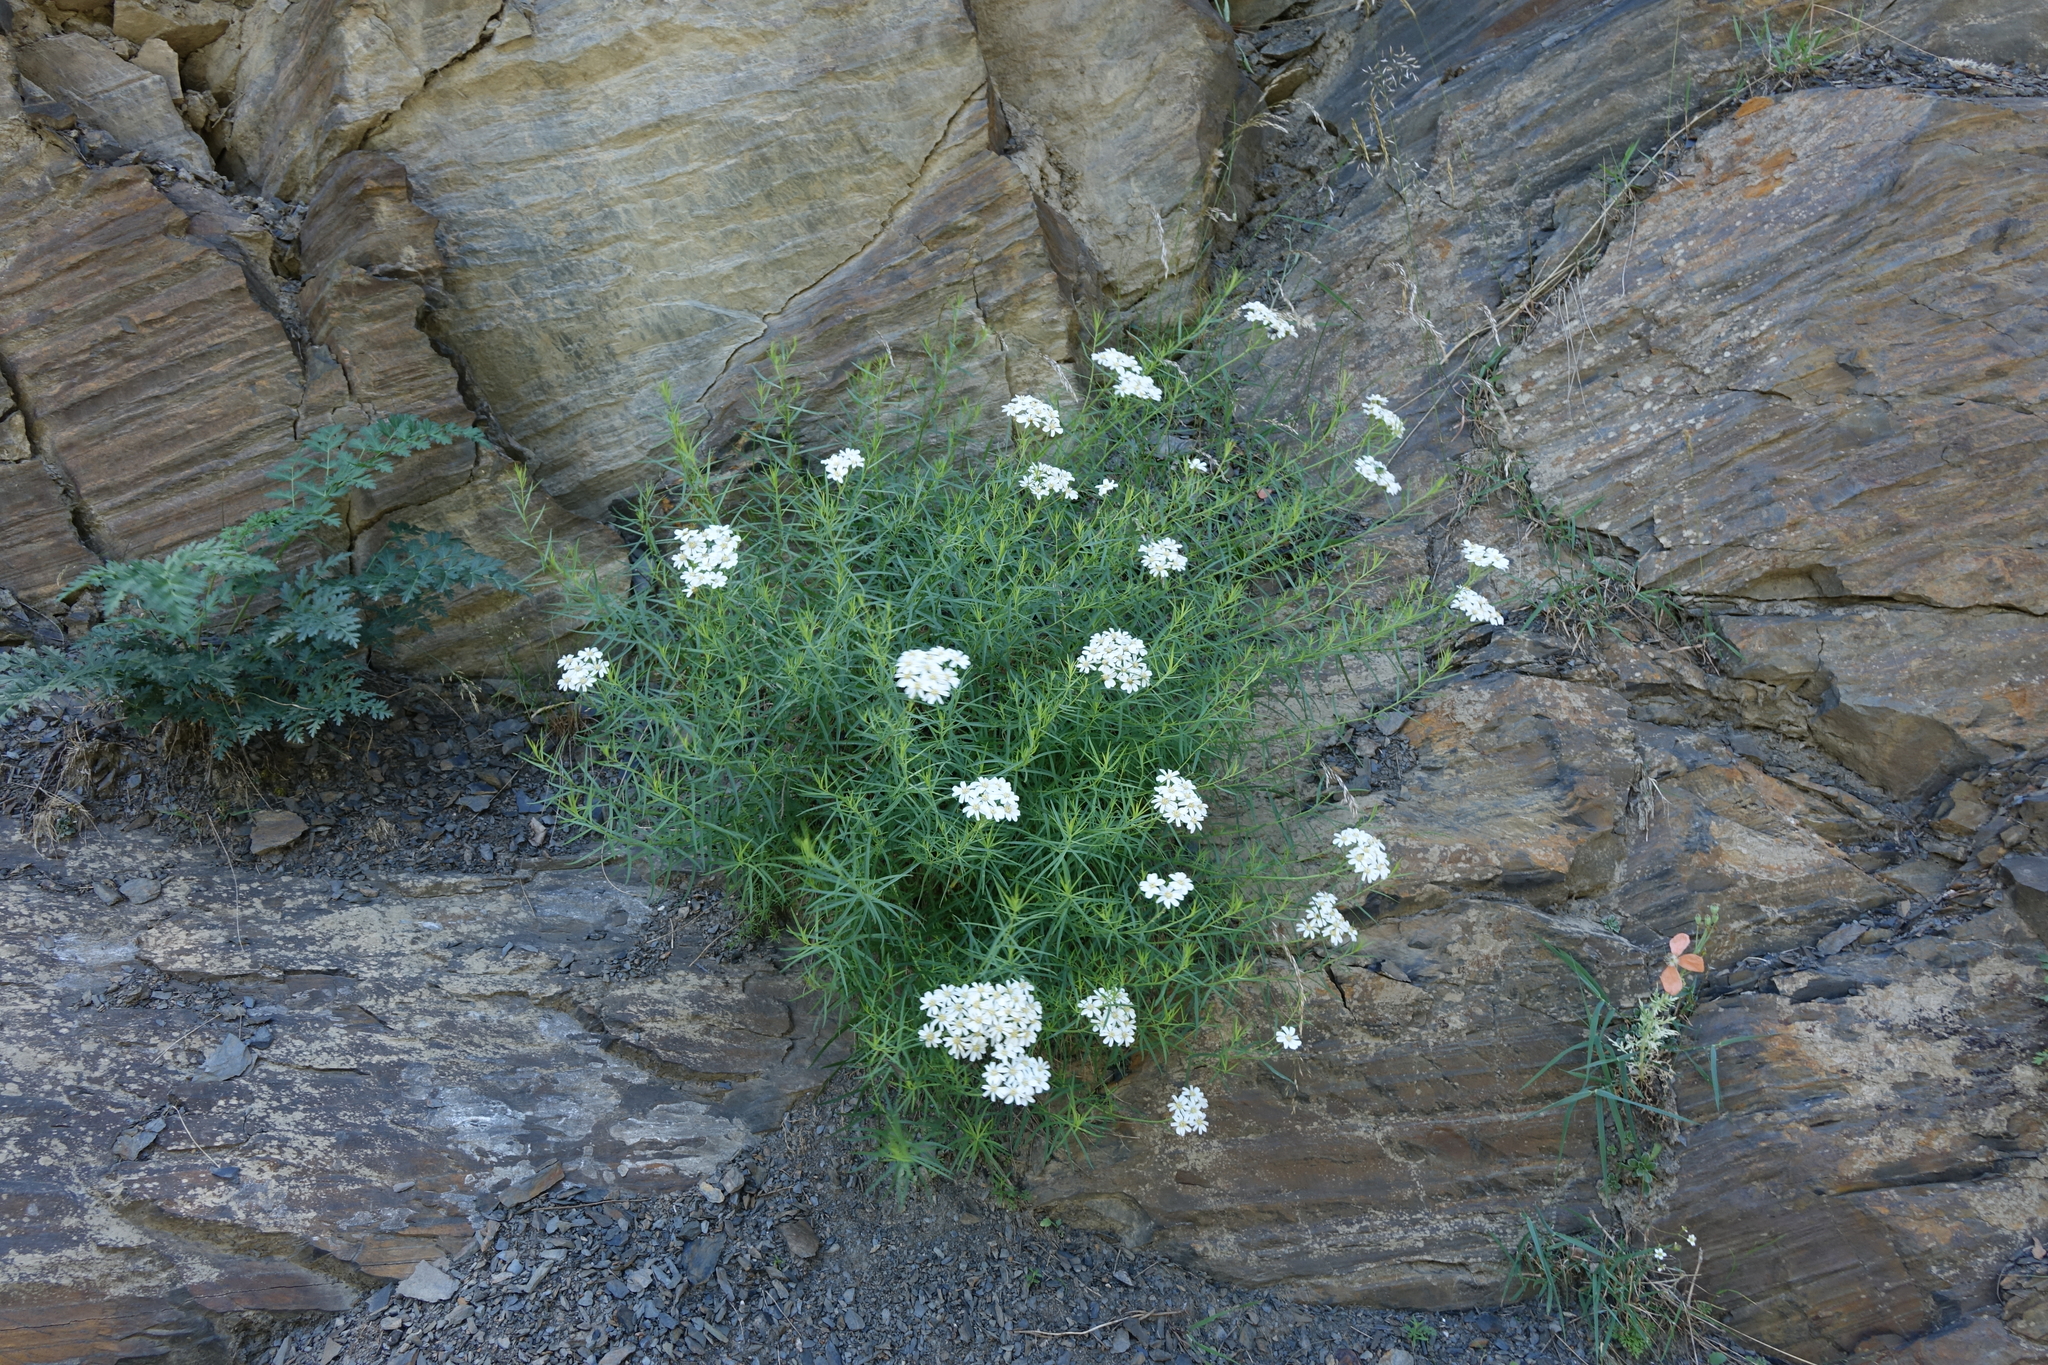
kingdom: Plantae
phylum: Tracheophyta
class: Magnoliopsida
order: Asterales
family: Asteraceae
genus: Achillea
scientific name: Achillea ptarmicifolia
